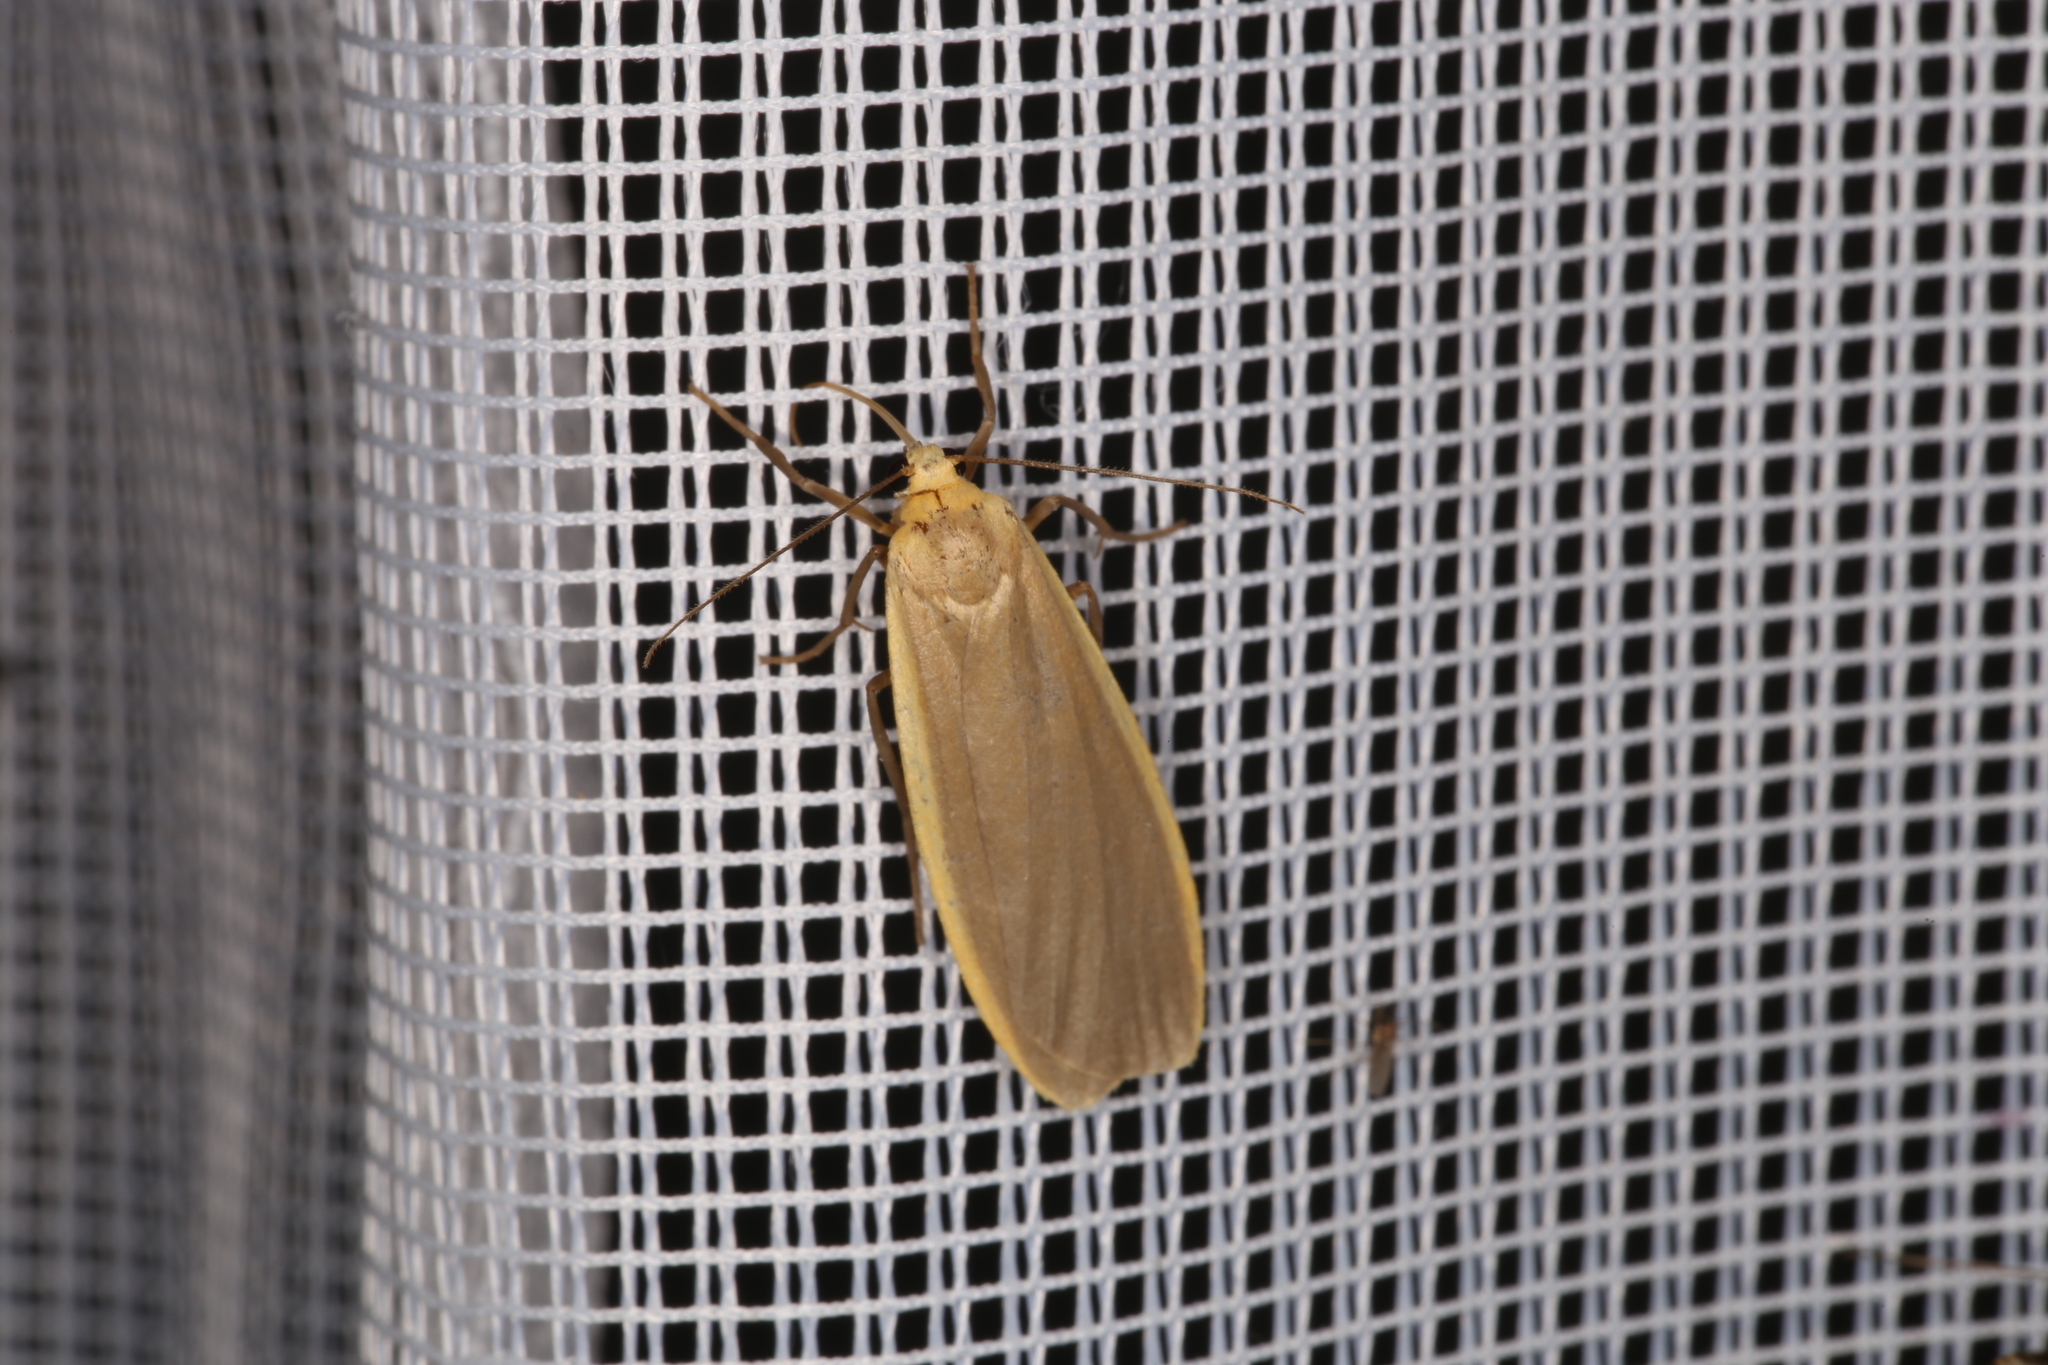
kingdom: Animalia
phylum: Arthropoda
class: Insecta
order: Lepidoptera
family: Erebidae
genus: Katha
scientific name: Katha depressa
